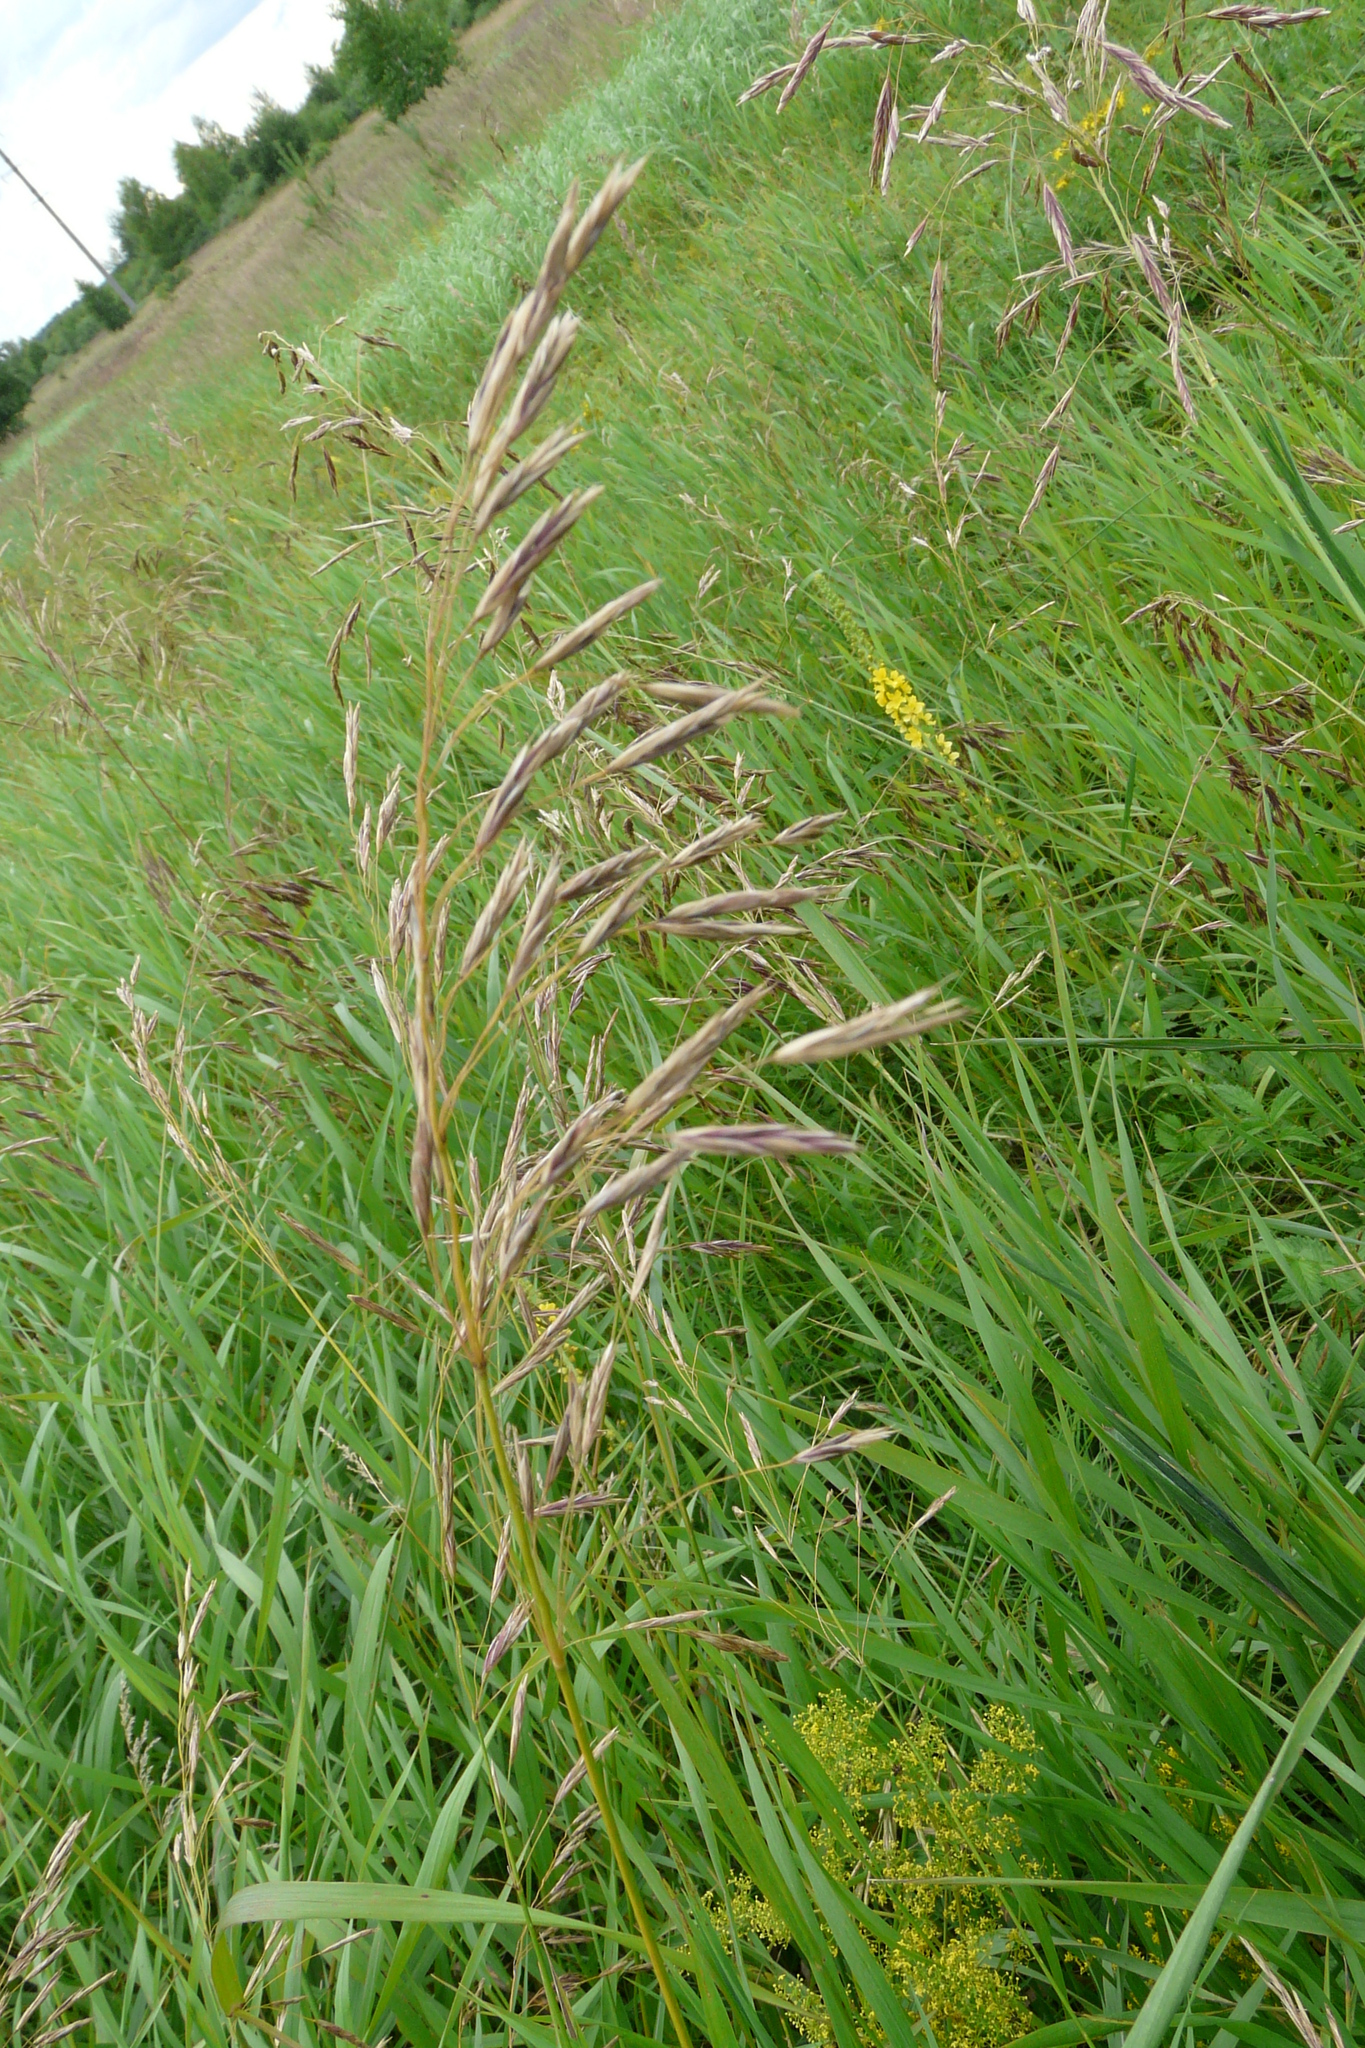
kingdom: Plantae
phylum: Tracheophyta
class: Liliopsida
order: Poales
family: Poaceae
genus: Bromus
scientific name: Bromus inermis
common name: Smooth brome
